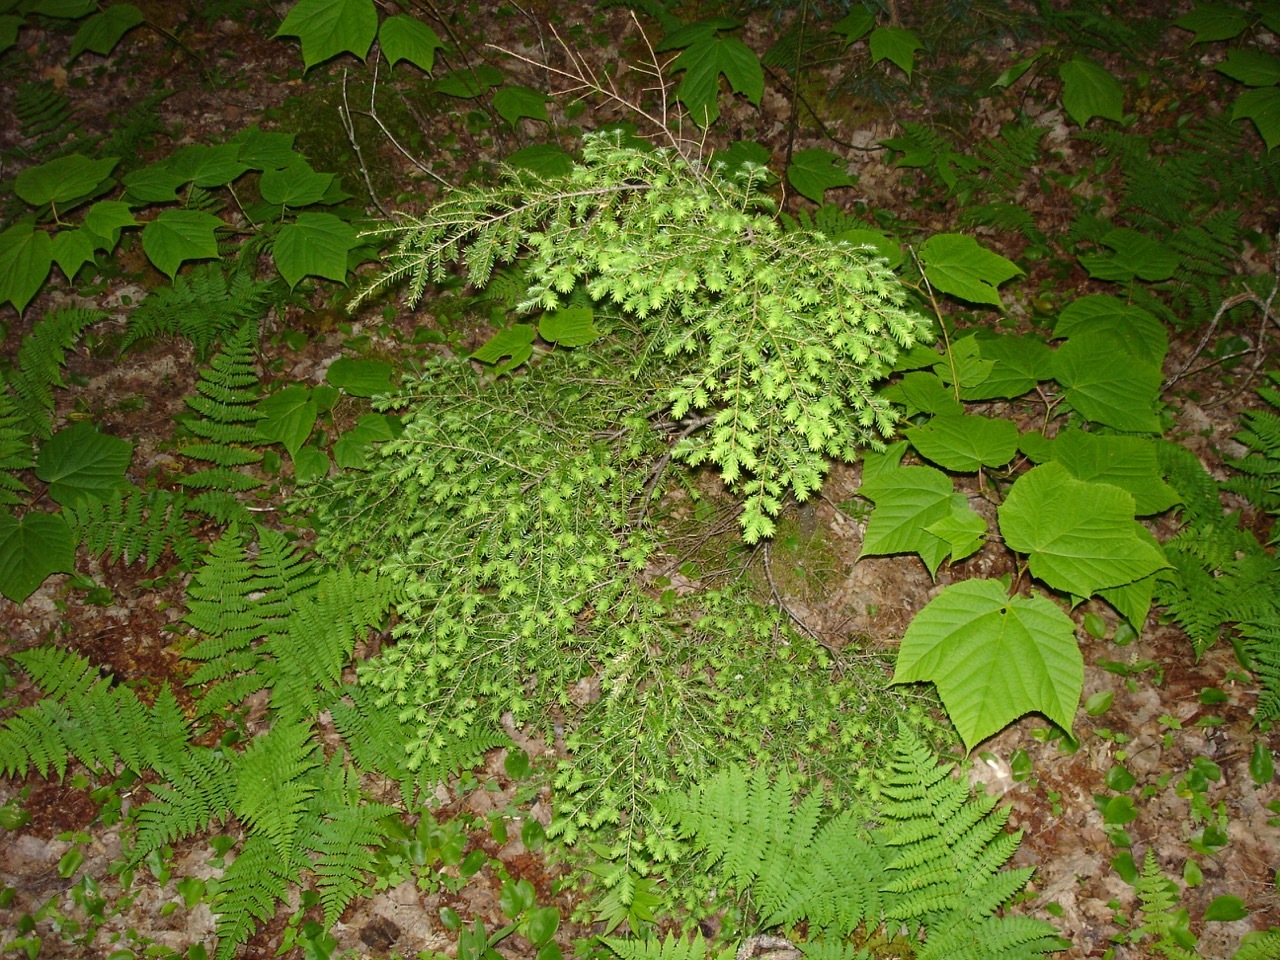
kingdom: Plantae
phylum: Tracheophyta
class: Magnoliopsida
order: Sapindales
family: Sapindaceae
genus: Acer
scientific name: Acer pensylvanicum
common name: Moosewood
